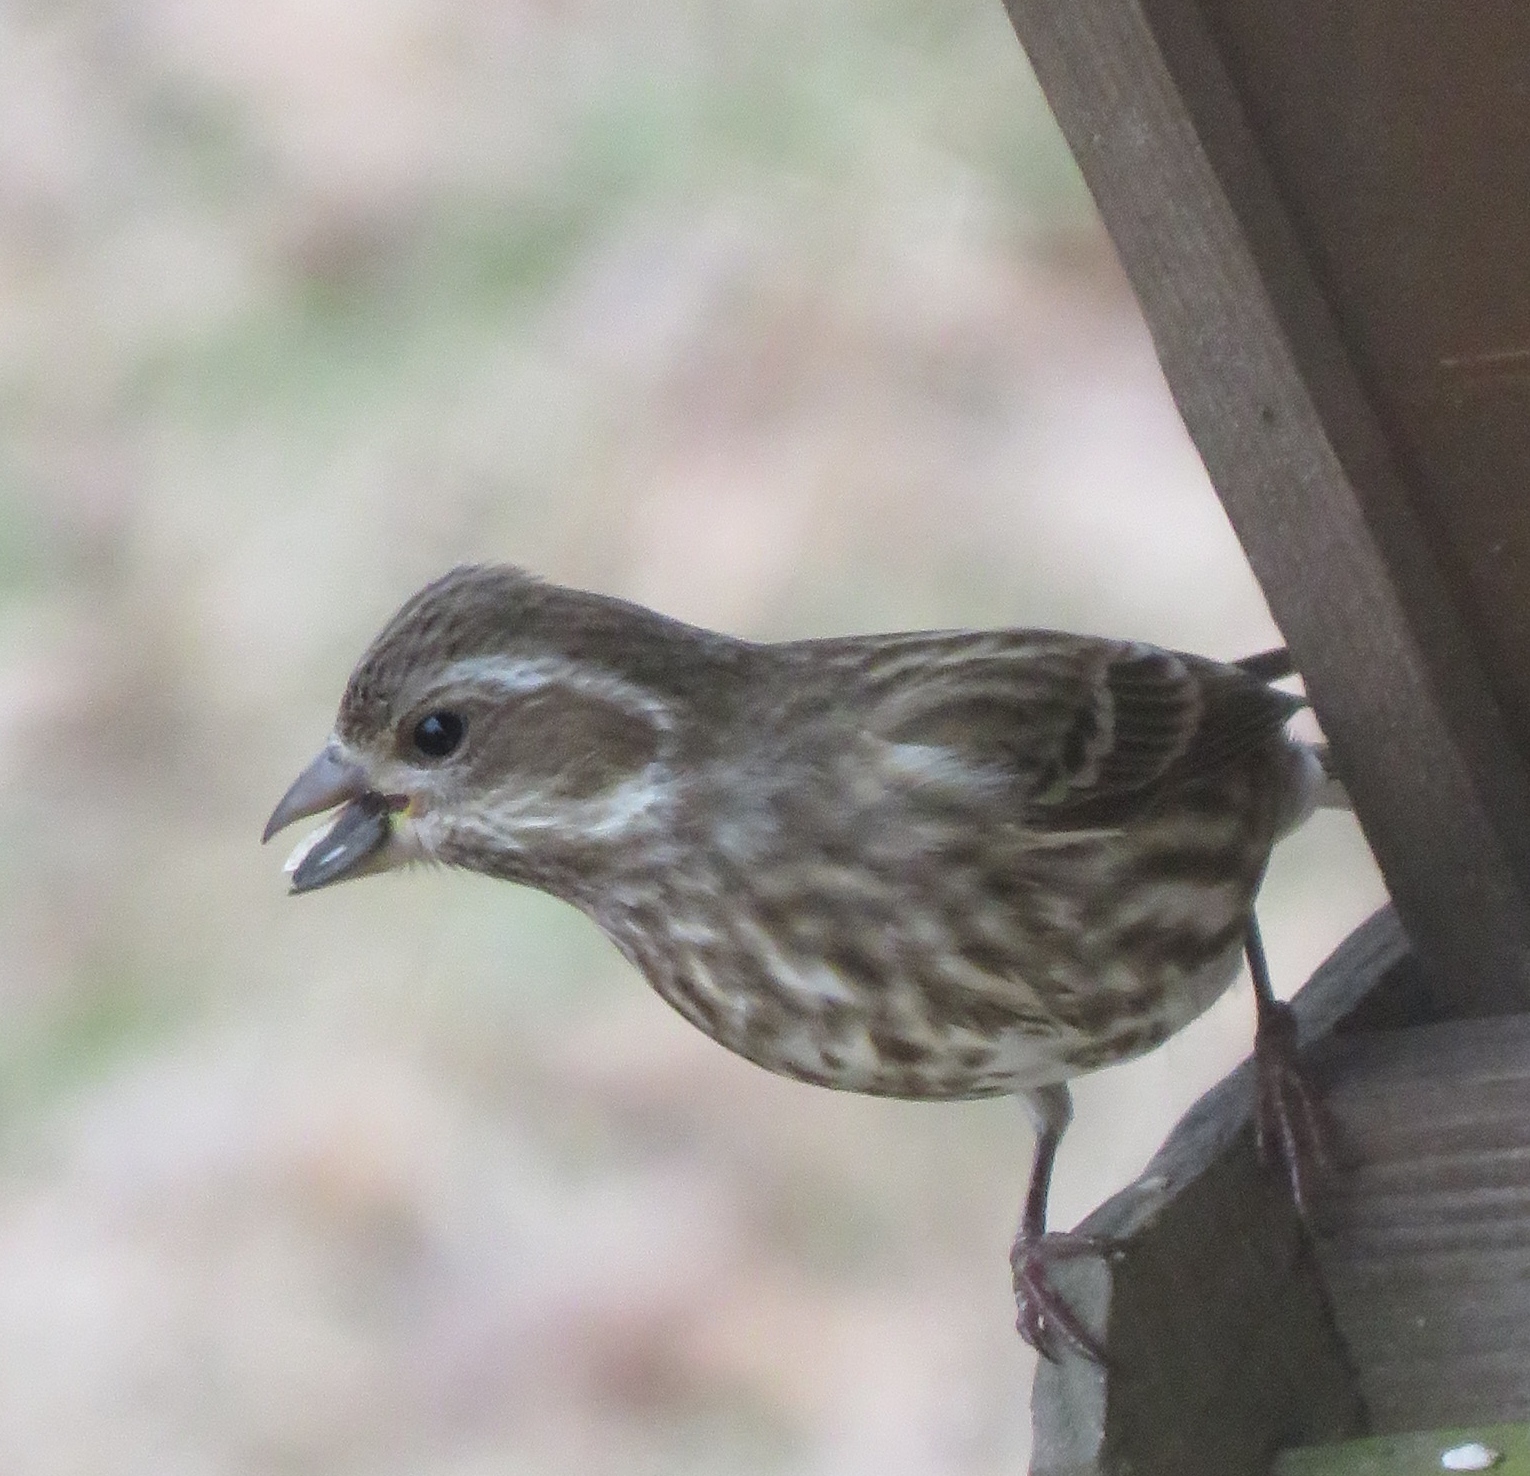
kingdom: Animalia
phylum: Chordata
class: Aves
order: Passeriformes
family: Fringillidae
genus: Haemorhous
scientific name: Haemorhous purpureus
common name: Purple finch
